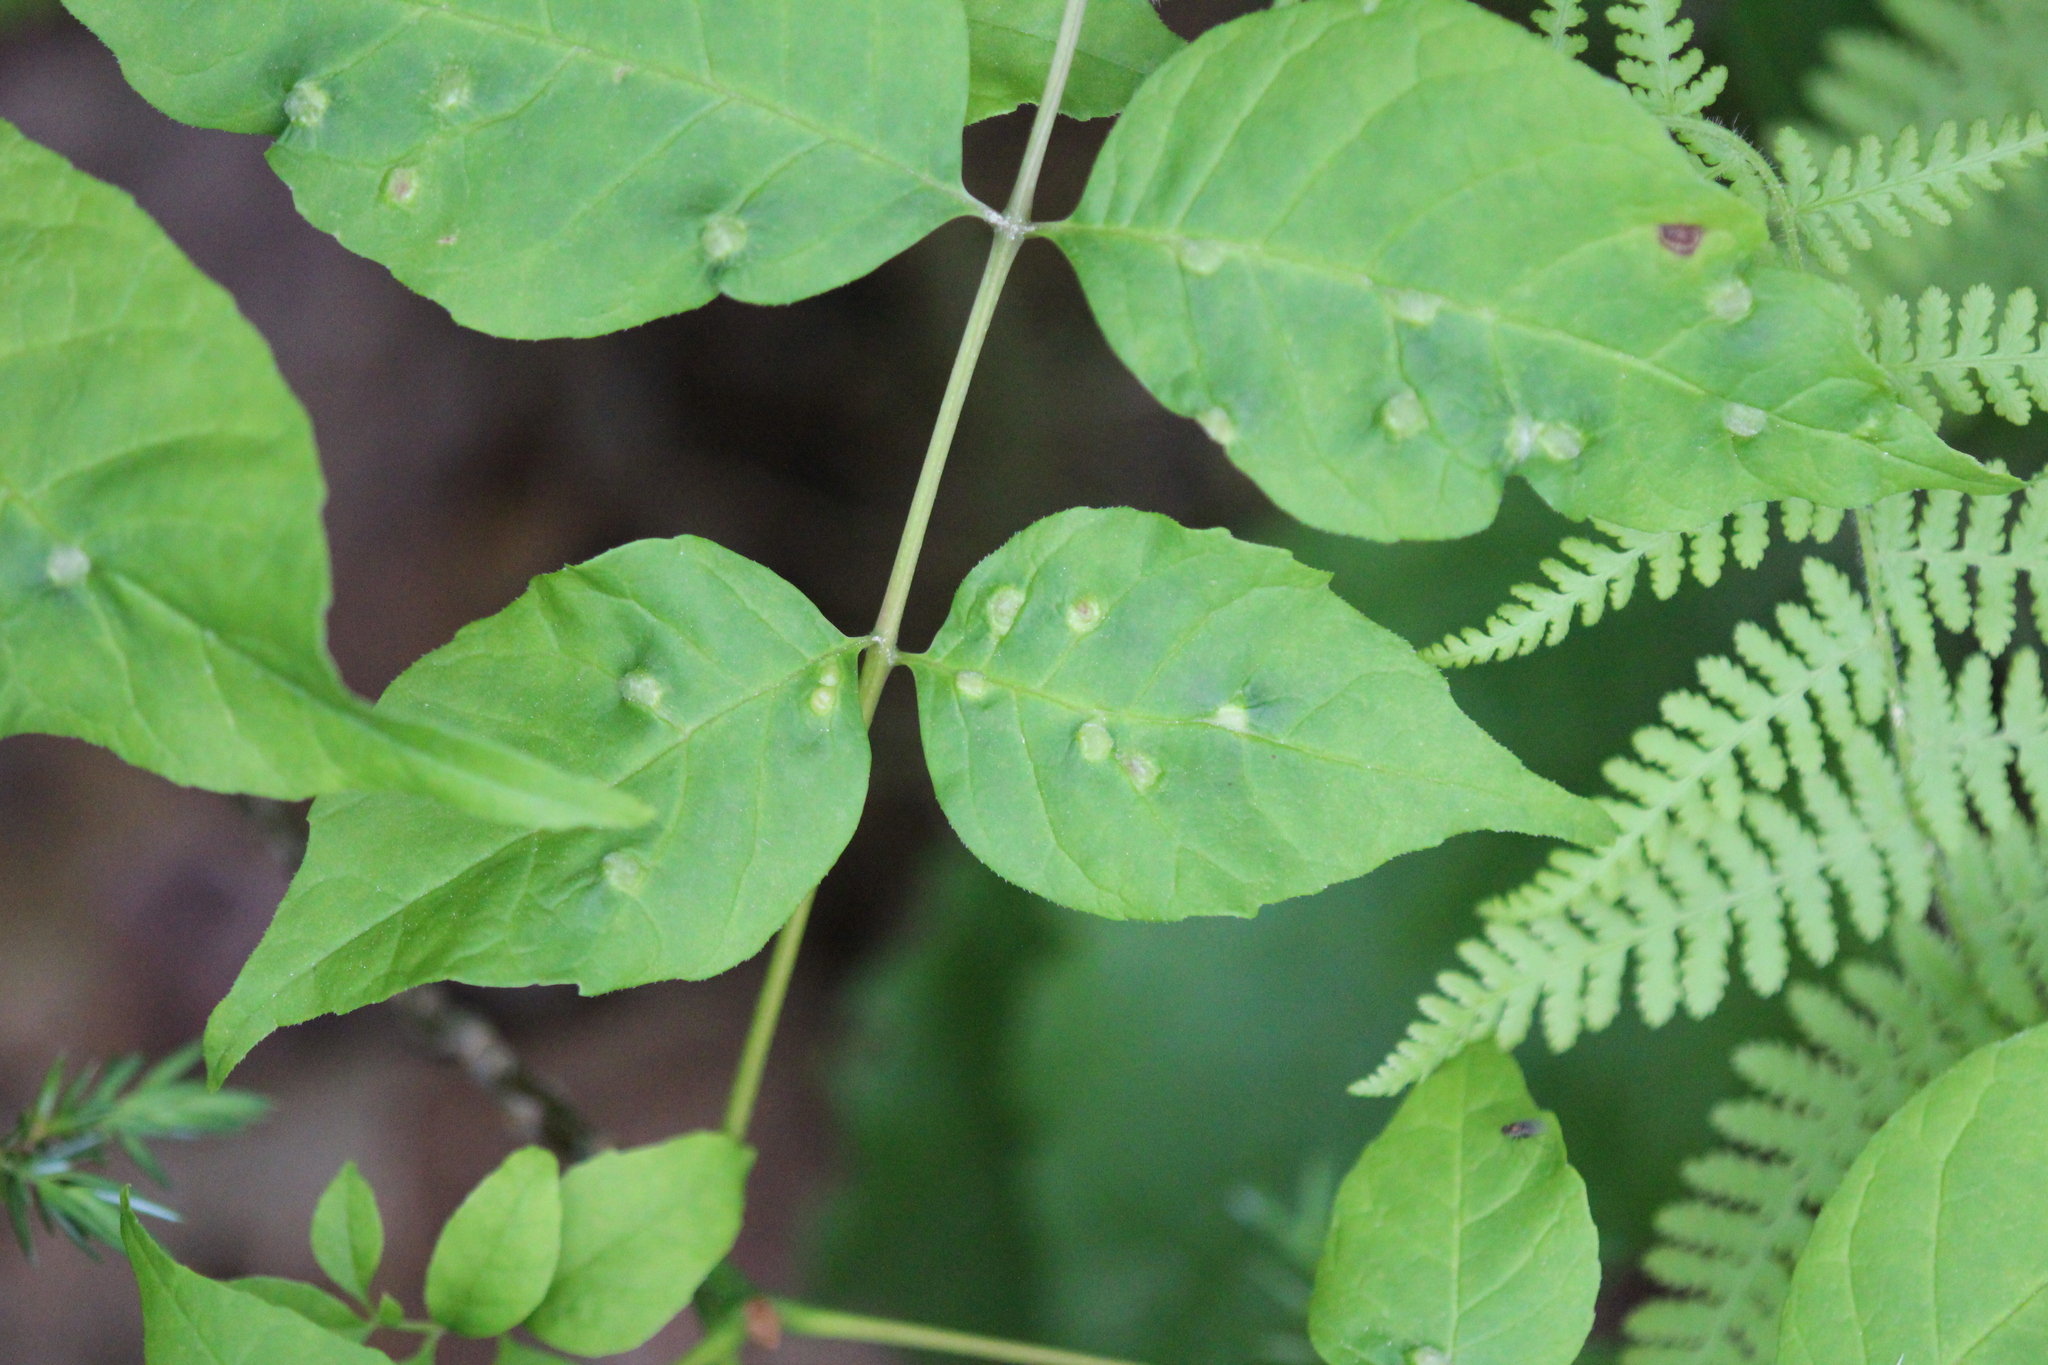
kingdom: Animalia
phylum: Arthropoda
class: Arachnida
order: Trombidiformes
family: Eriophyidae
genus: Aceria
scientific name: Aceria fraxinicola
